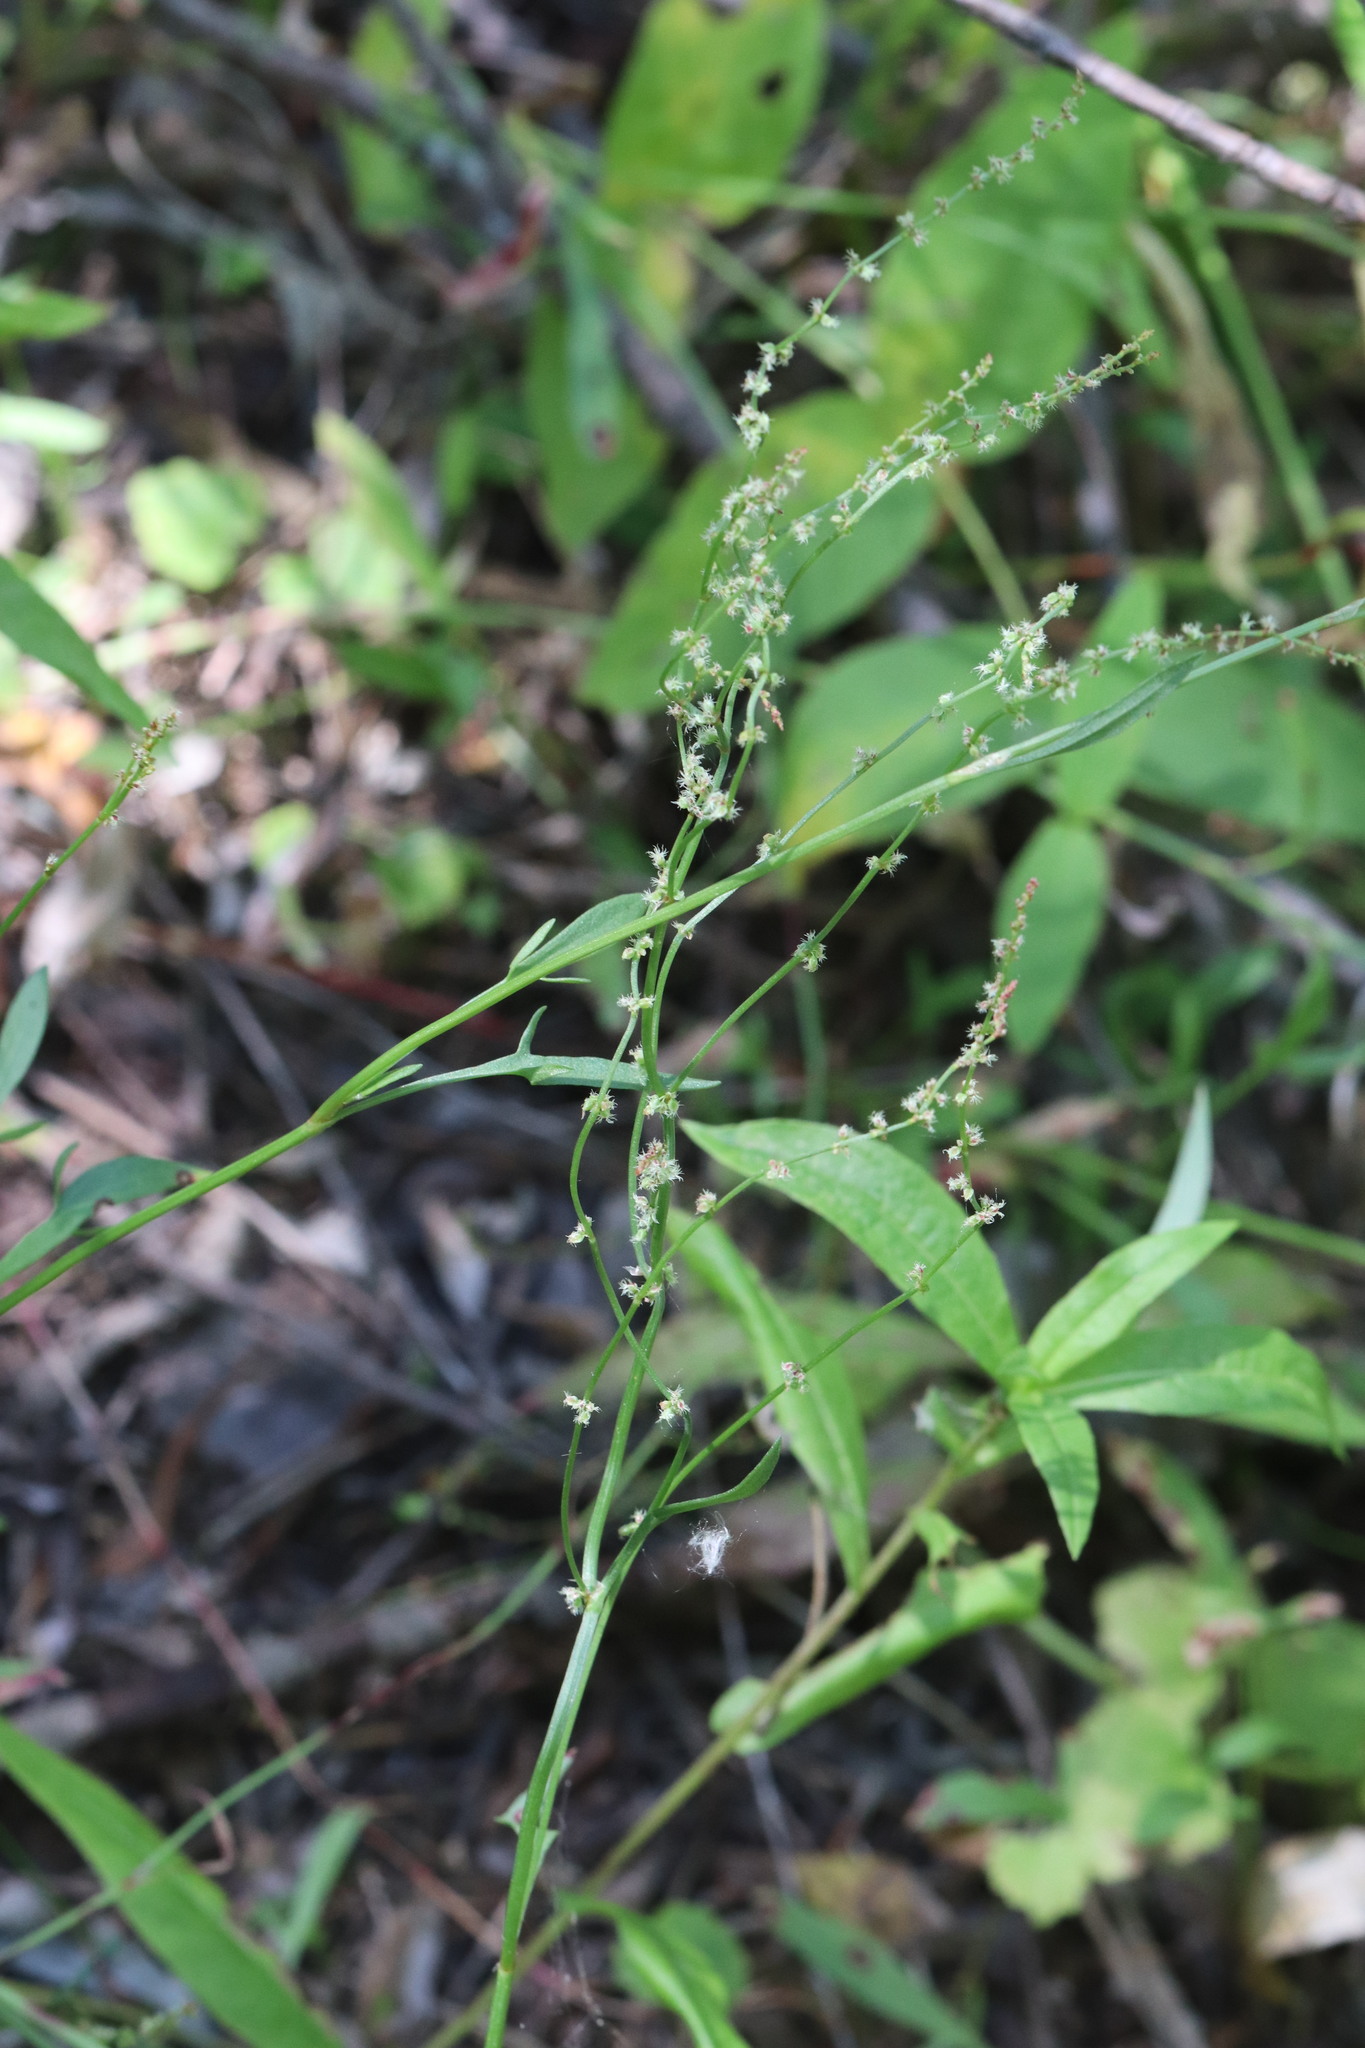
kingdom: Plantae
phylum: Tracheophyta
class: Magnoliopsida
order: Caryophyllales
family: Polygonaceae
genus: Rumex
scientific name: Rumex acetosella
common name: Common sheep sorrel
